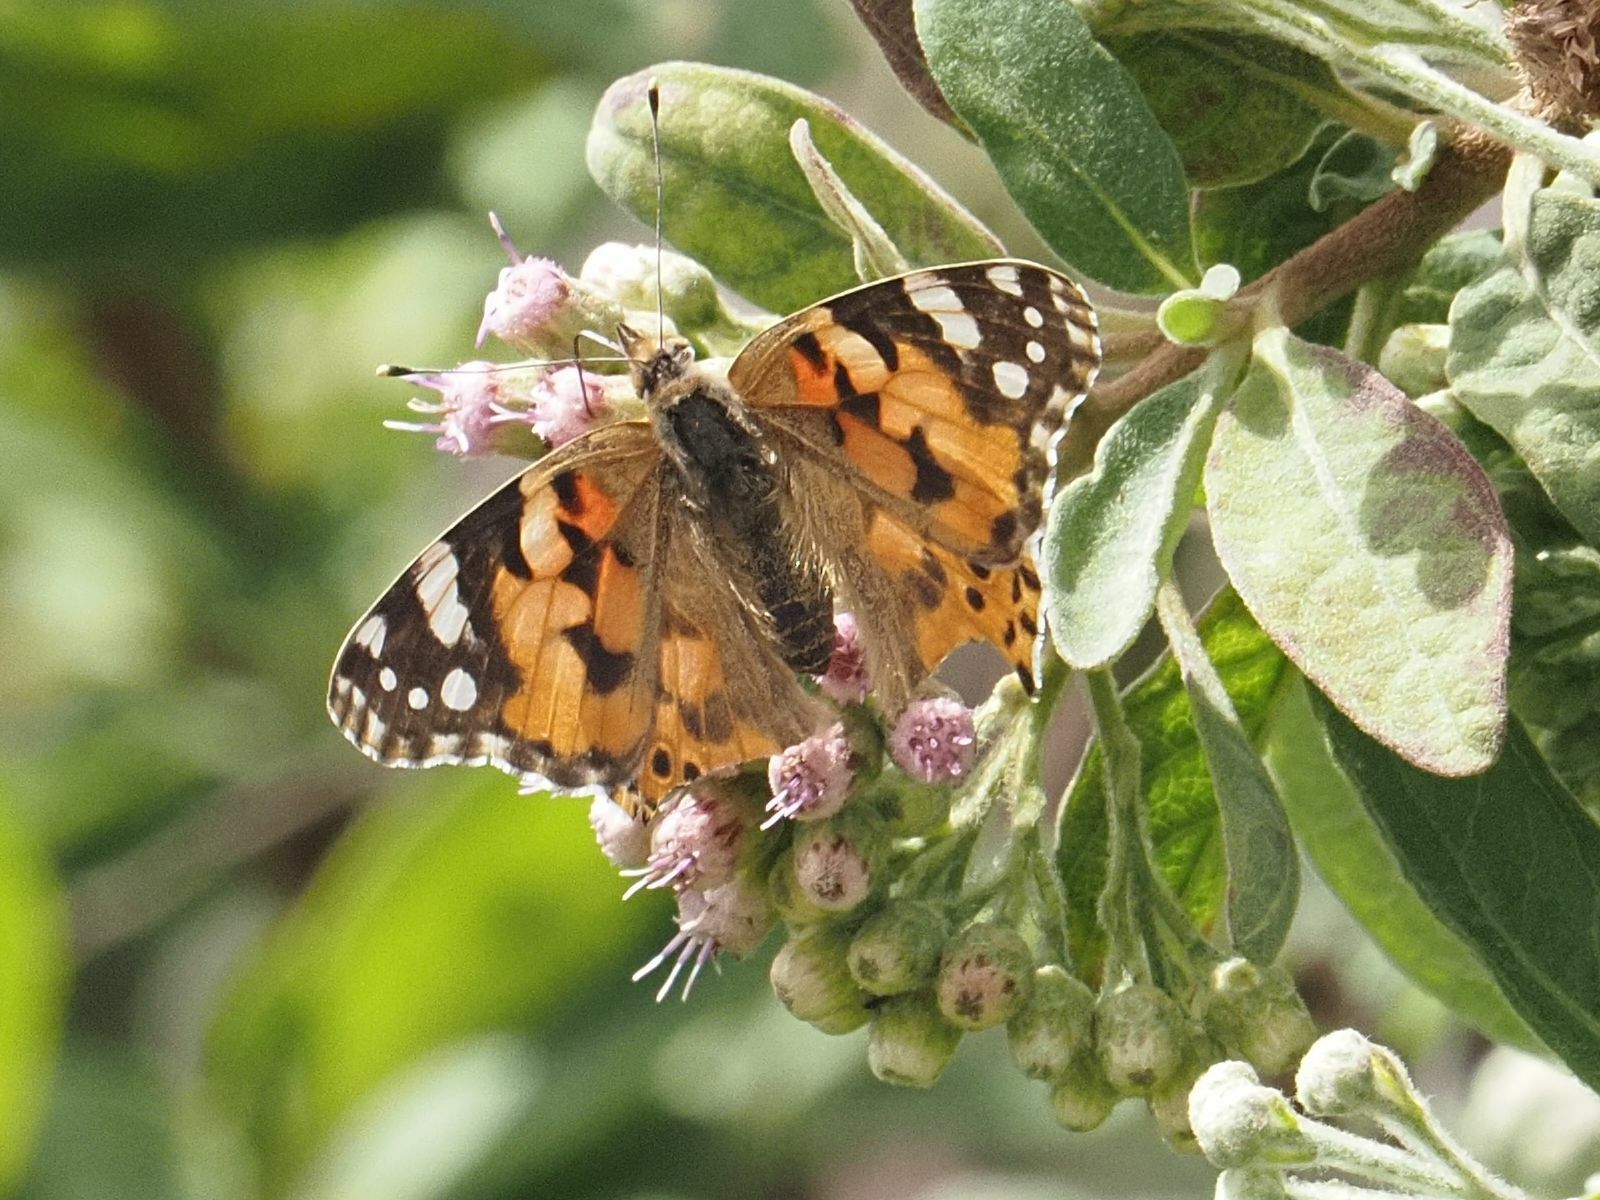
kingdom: Animalia
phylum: Arthropoda
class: Insecta
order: Lepidoptera
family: Nymphalidae
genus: Vanessa
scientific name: Vanessa cardui
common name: Painted lady
